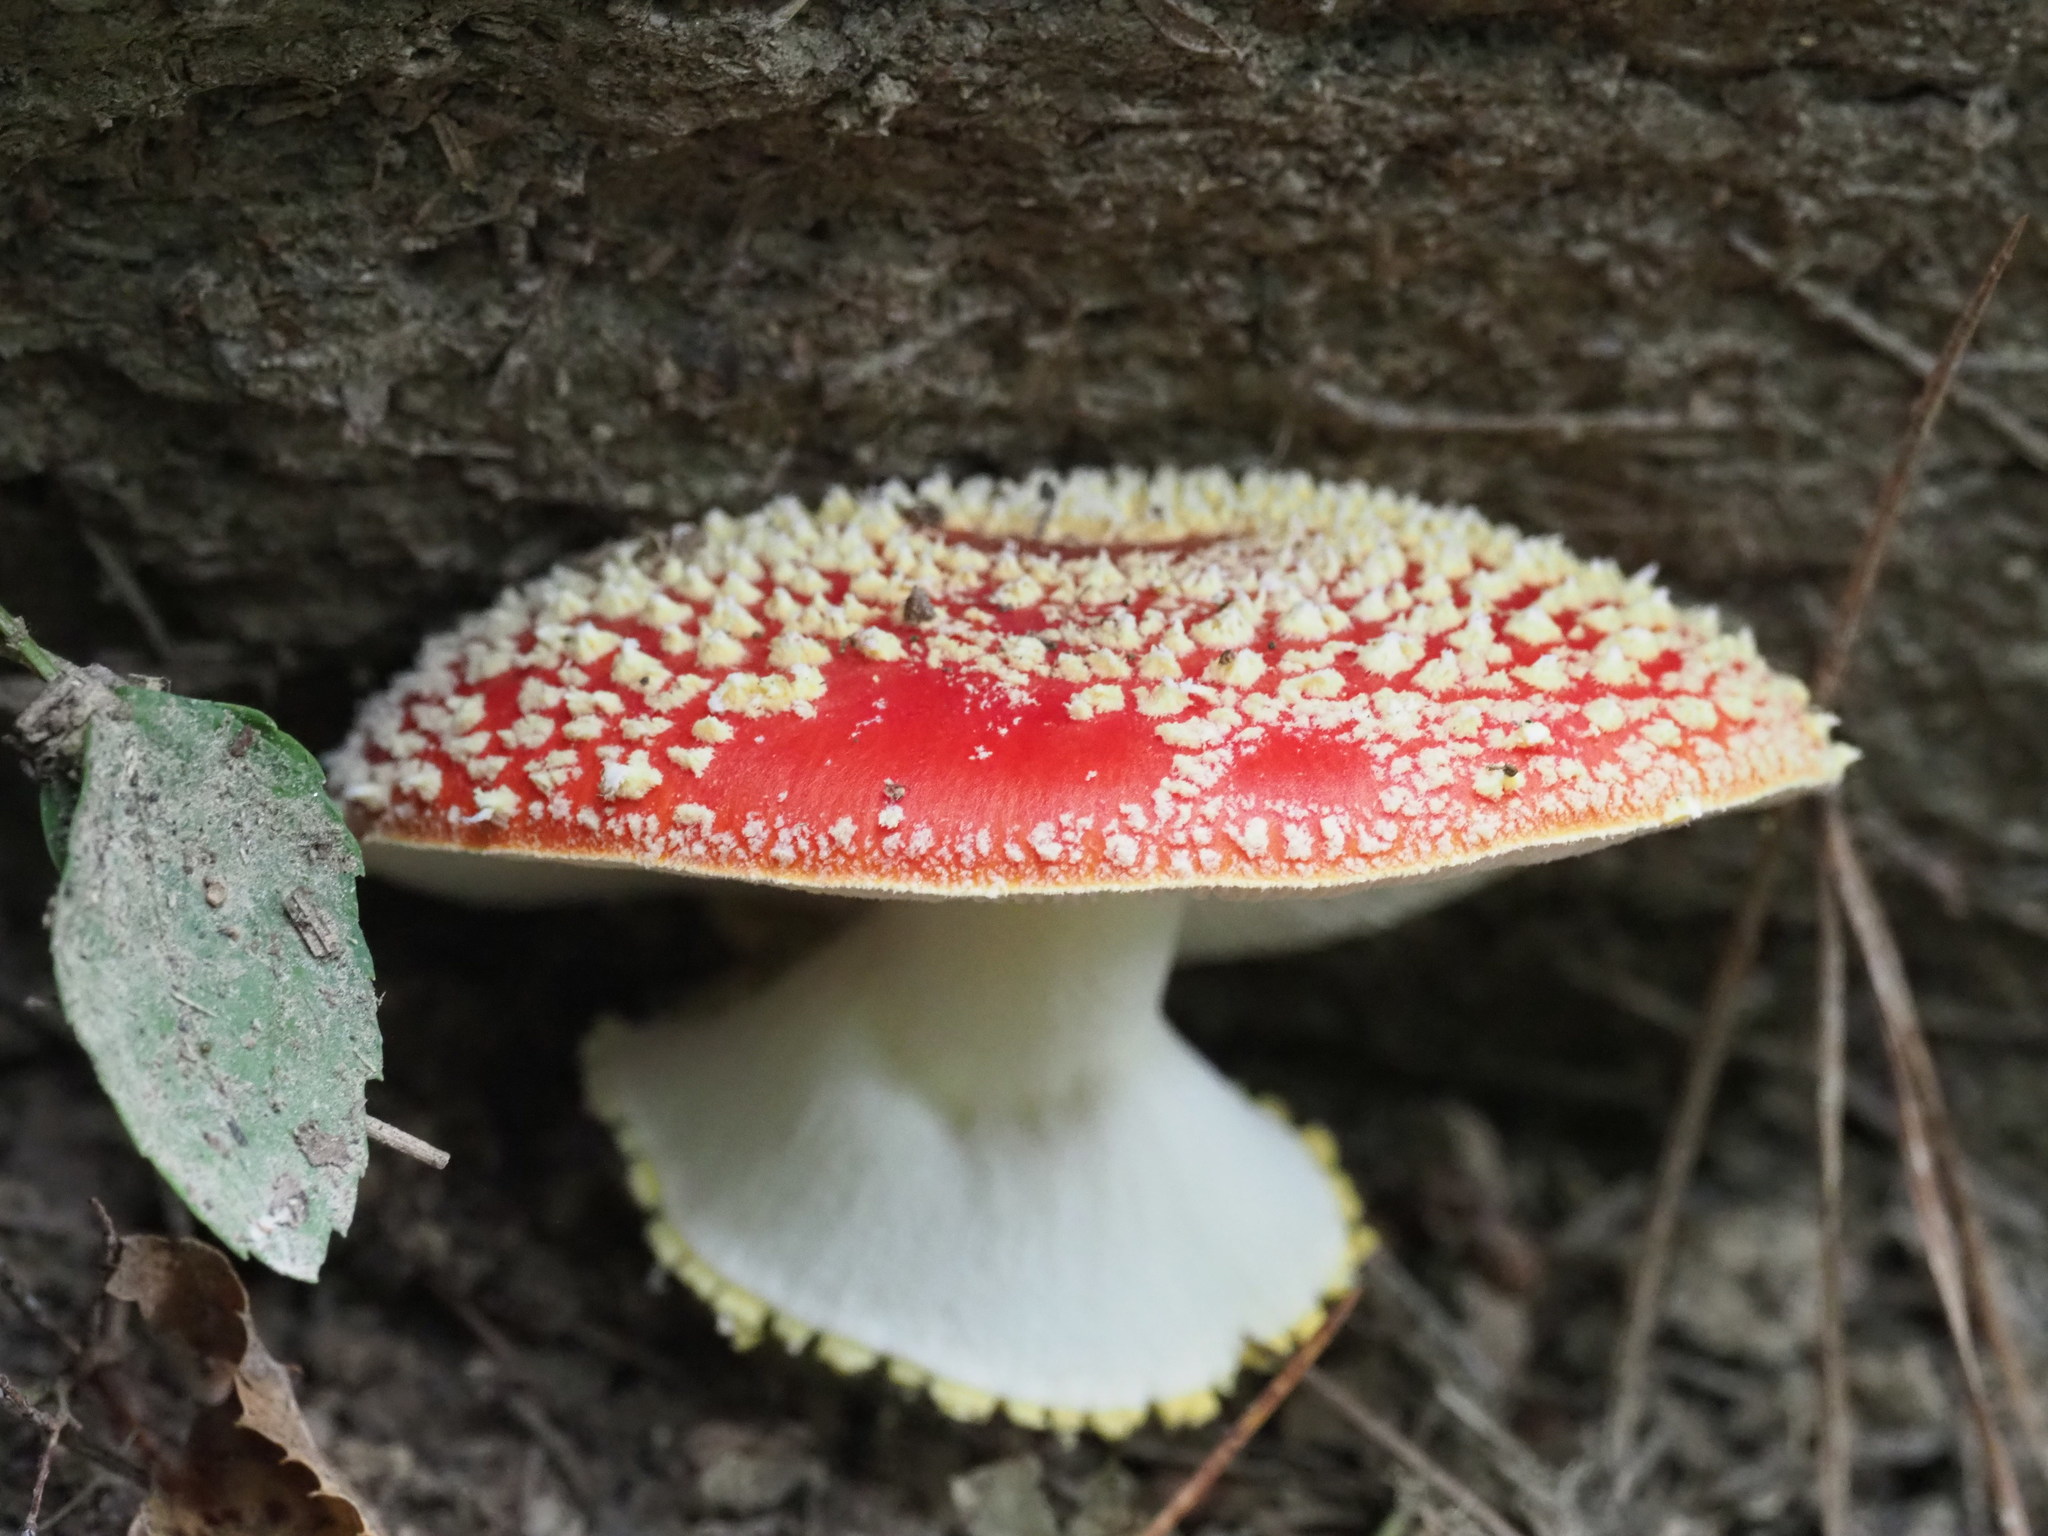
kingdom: Fungi
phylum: Basidiomycota
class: Agaricomycetes
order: Agaricales
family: Amanitaceae
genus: Amanita
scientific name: Amanita muscaria
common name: Fly agaric
